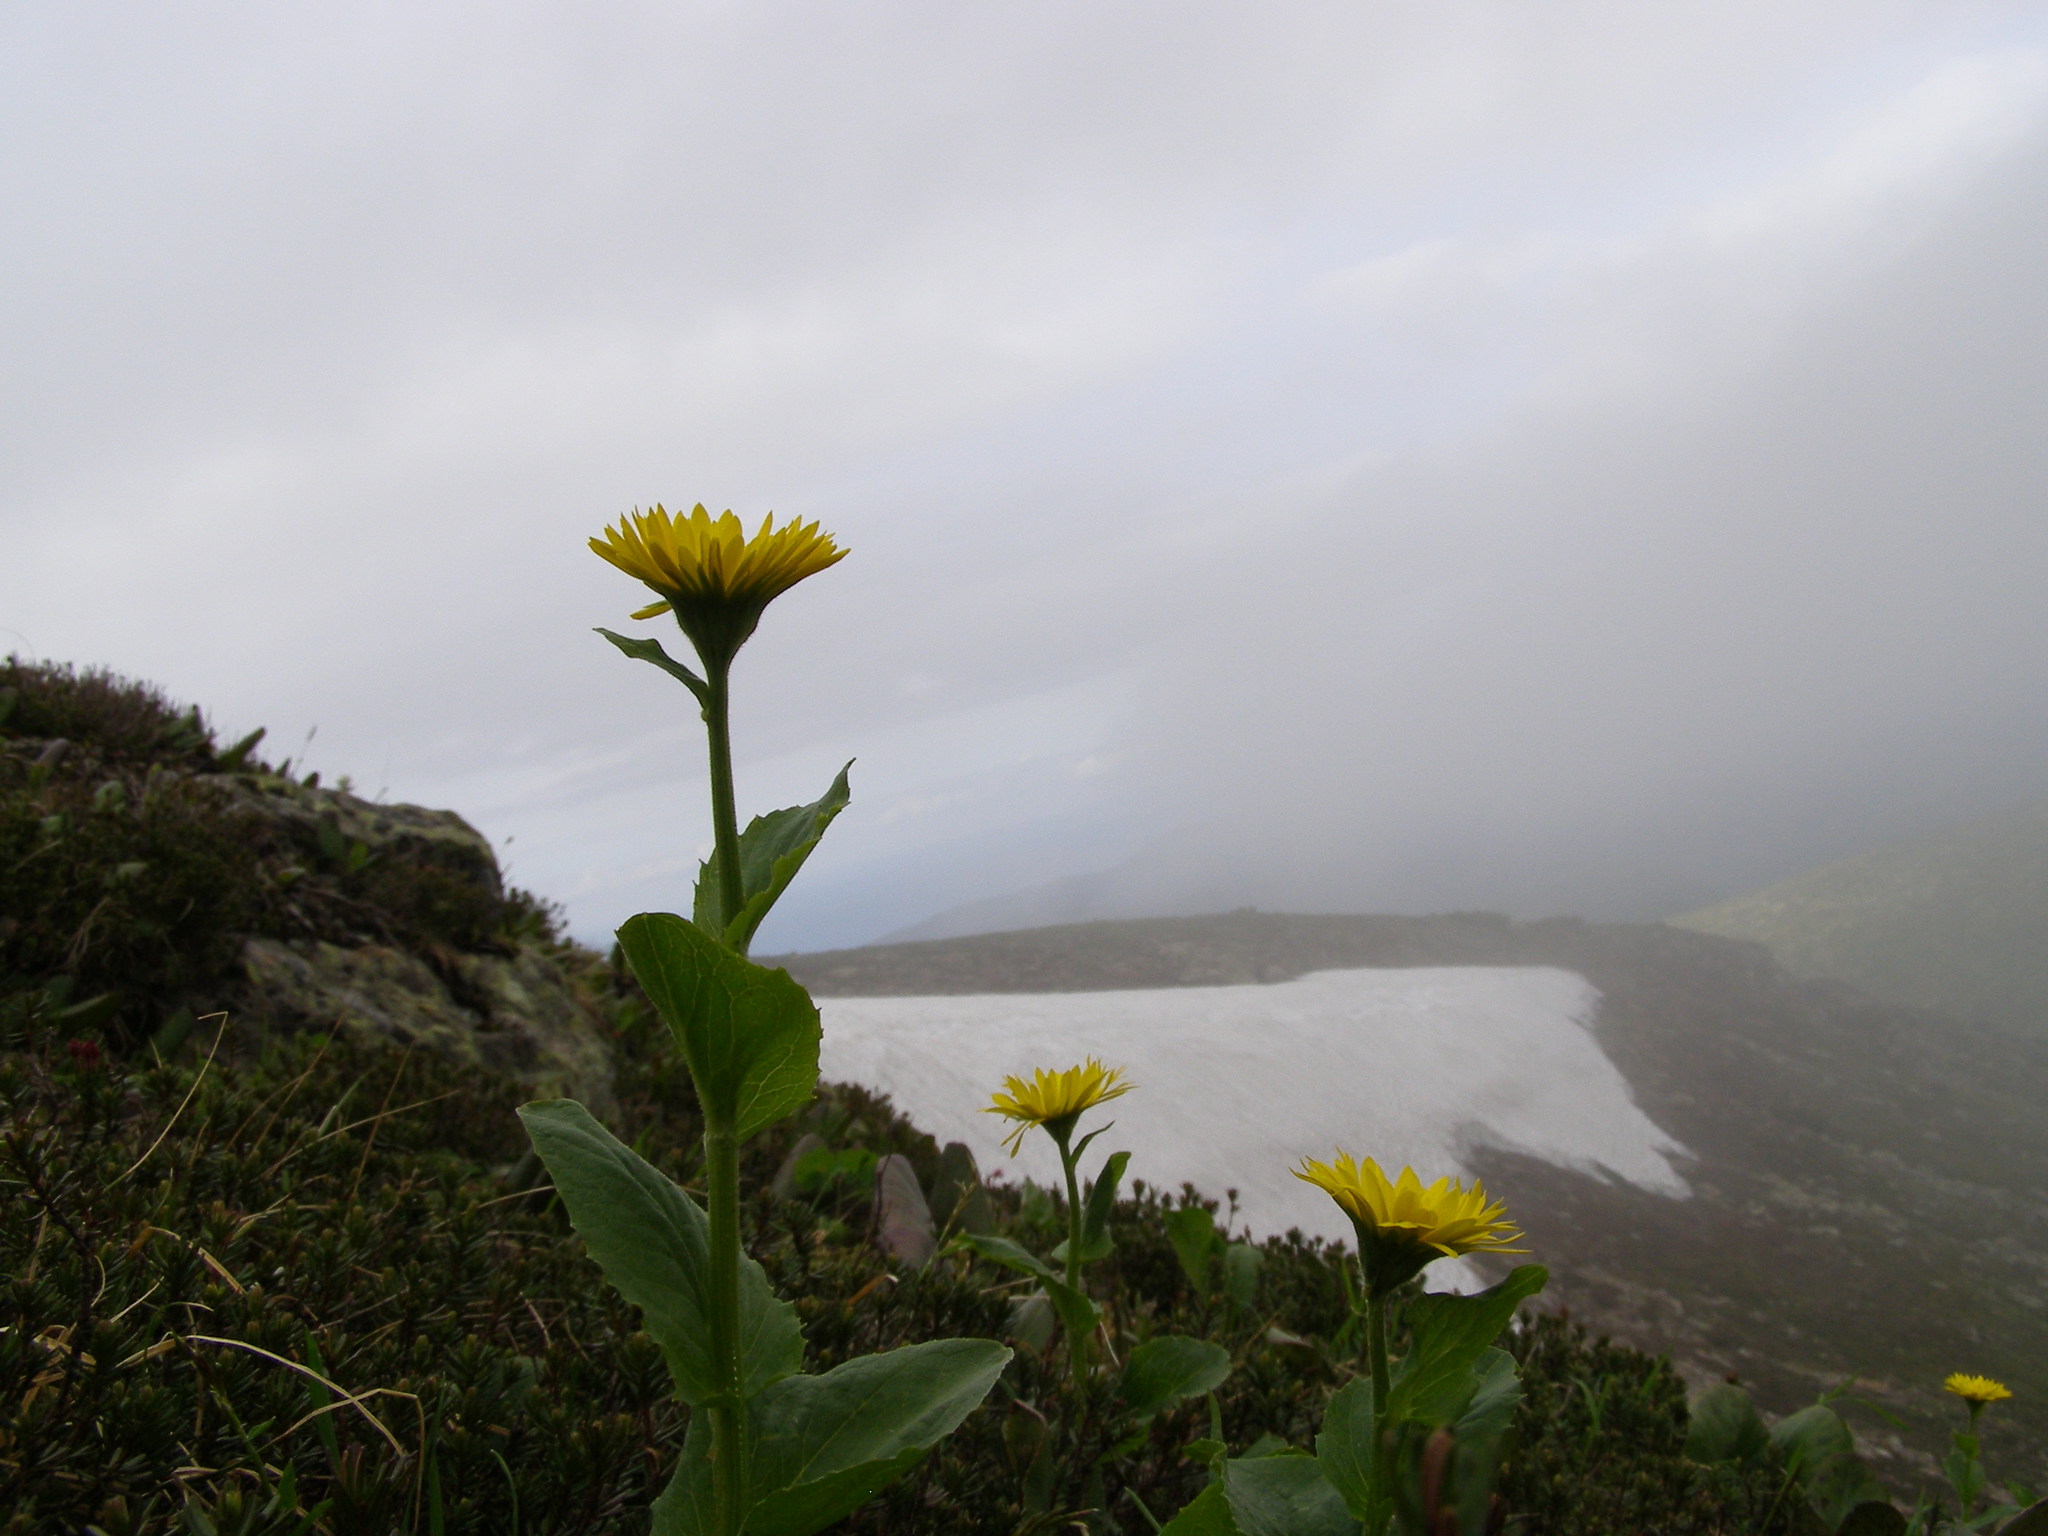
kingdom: Plantae
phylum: Tracheophyta
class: Magnoliopsida
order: Asterales
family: Asteraceae
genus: Doronicum
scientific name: Doronicum altaicum
